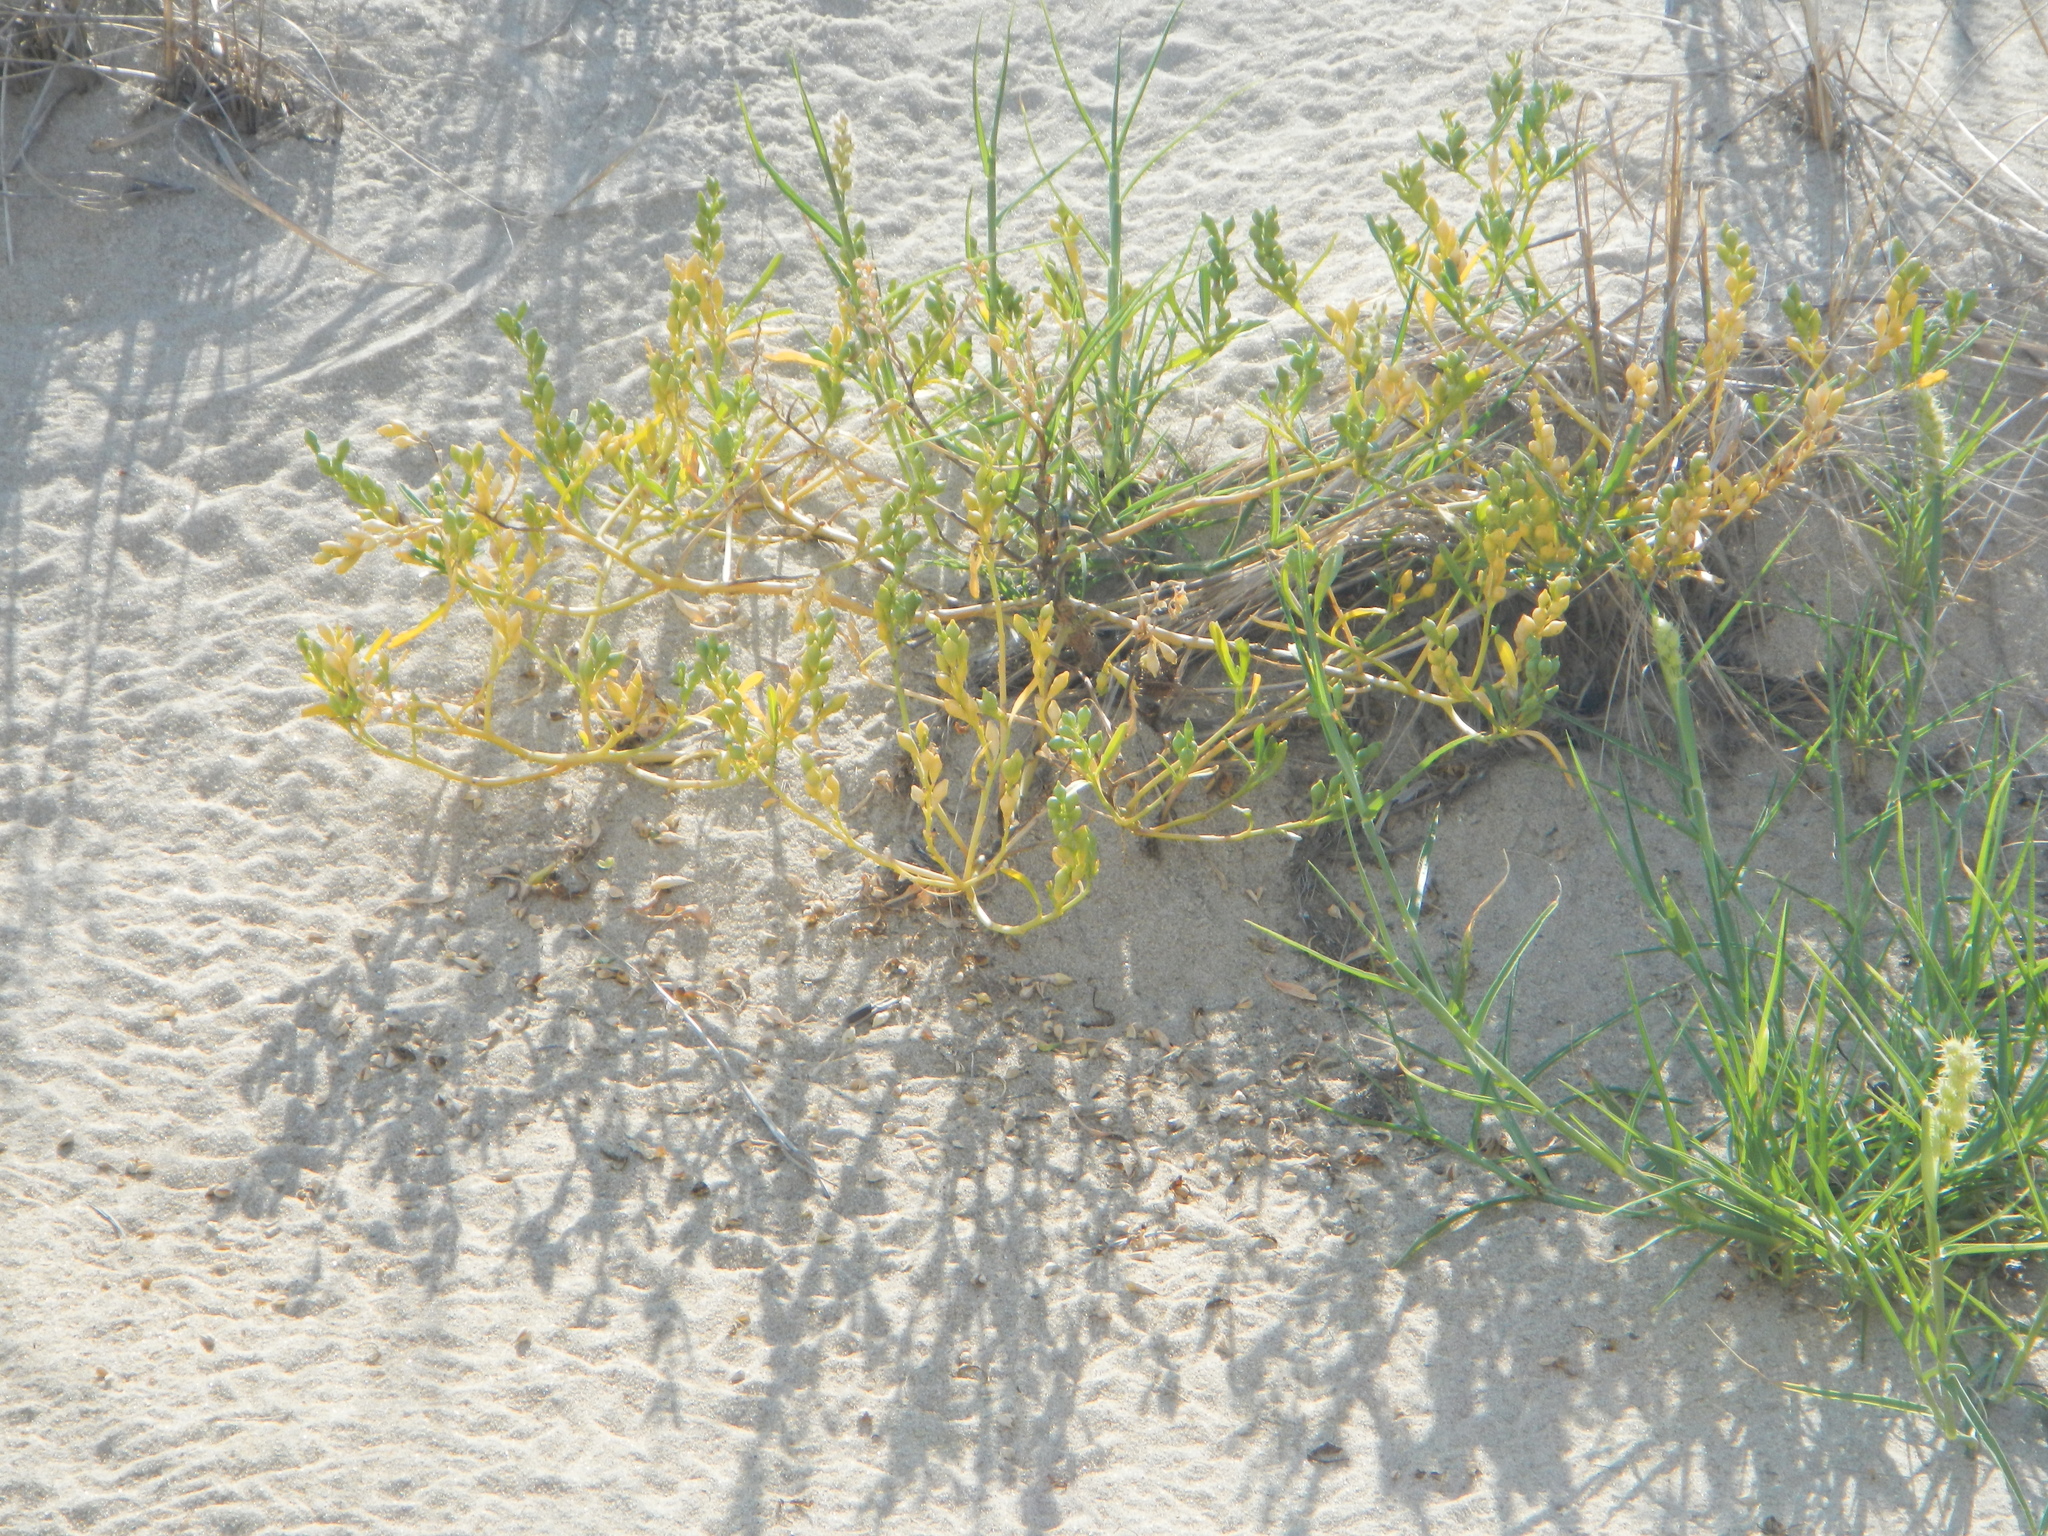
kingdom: Plantae
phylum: Tracheophyta
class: Magnoliopsida
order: Brassicales
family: Brassicaceae
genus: Cakile
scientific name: Cakile edentula
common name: American sea rocket
